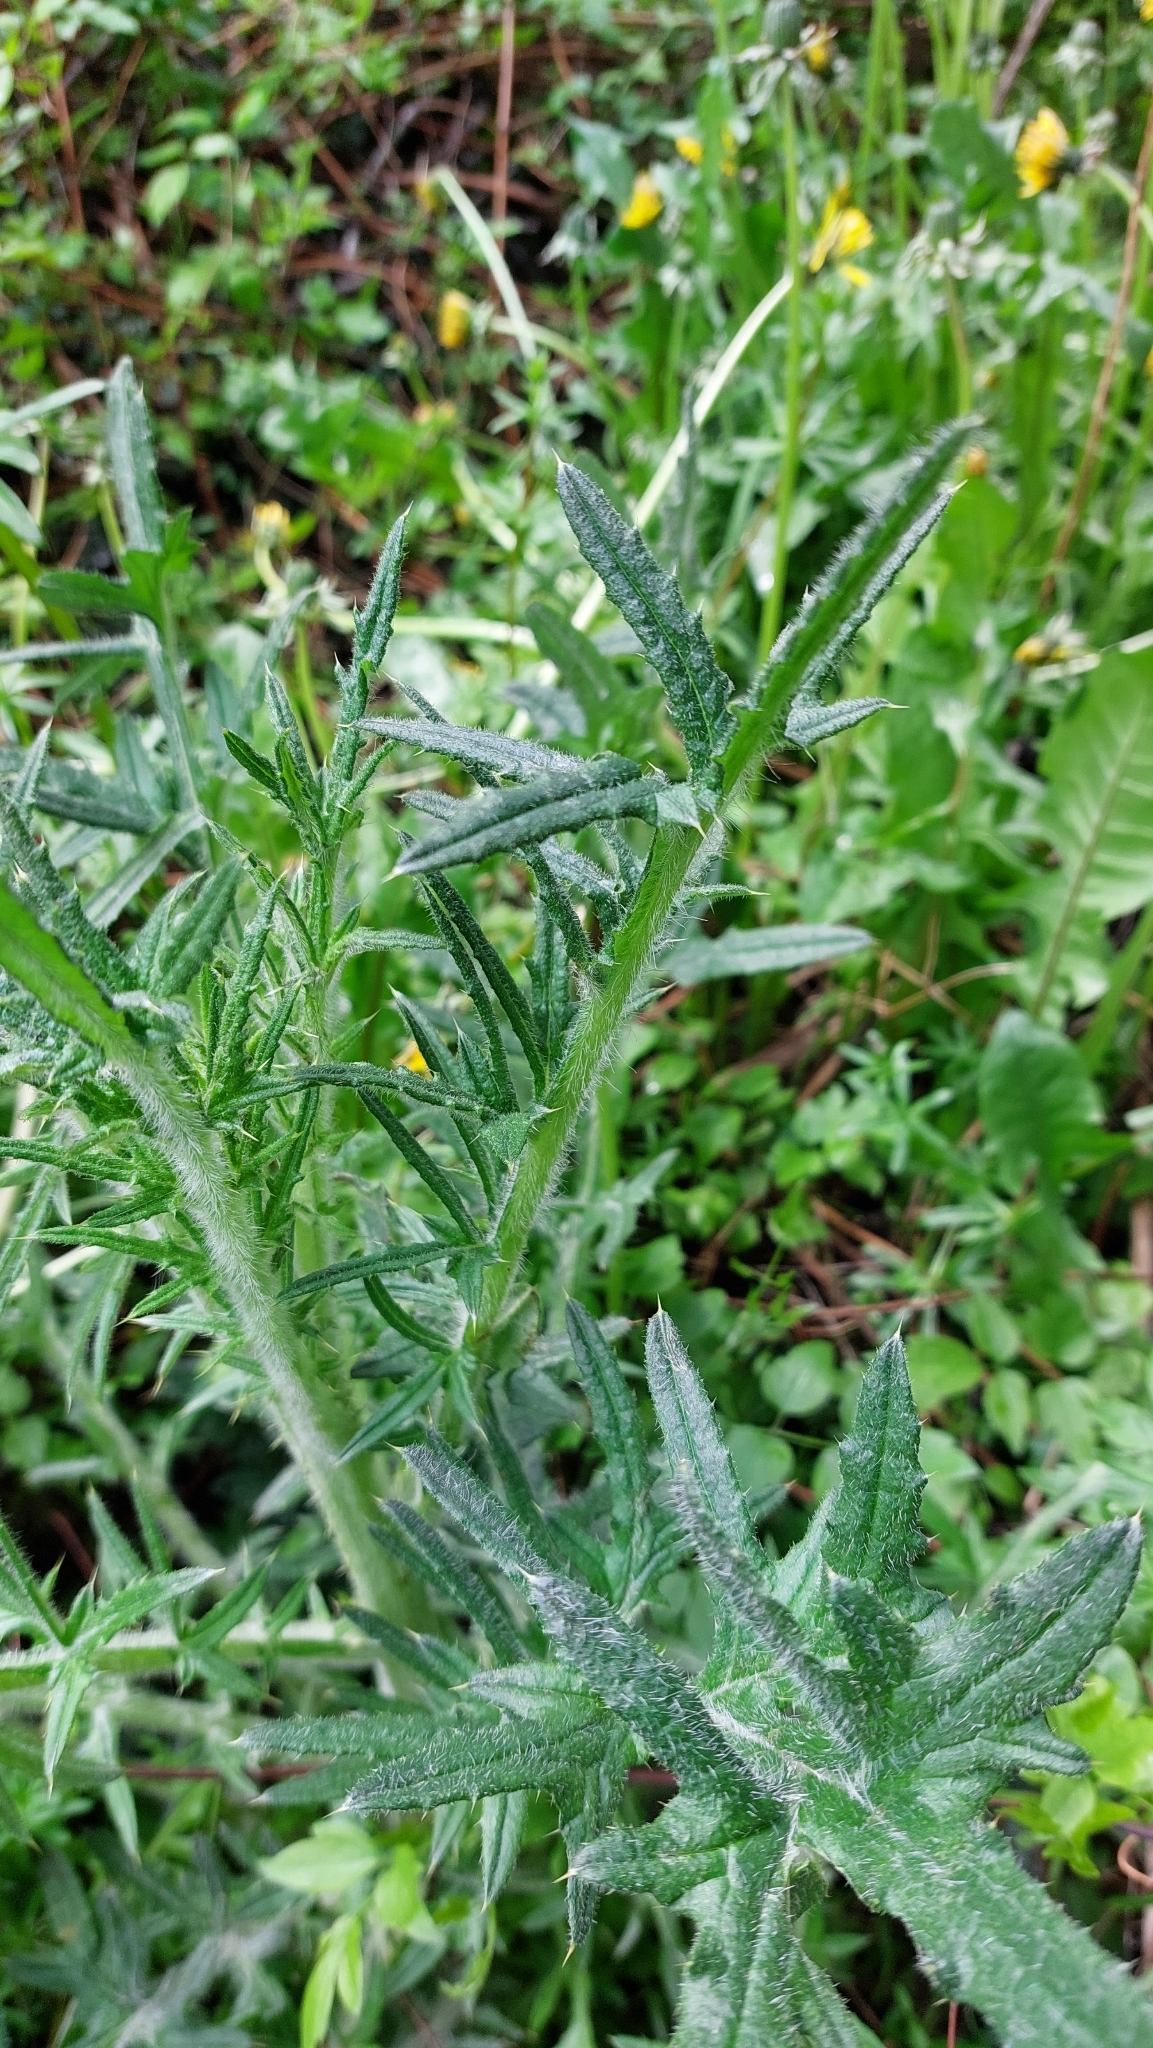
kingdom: Plantae
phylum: Tracheophyta
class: Magnoliopsida
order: Asterales
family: Asteraceae
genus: Cirsium
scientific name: Cirsium vulgare
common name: Bull thistle
